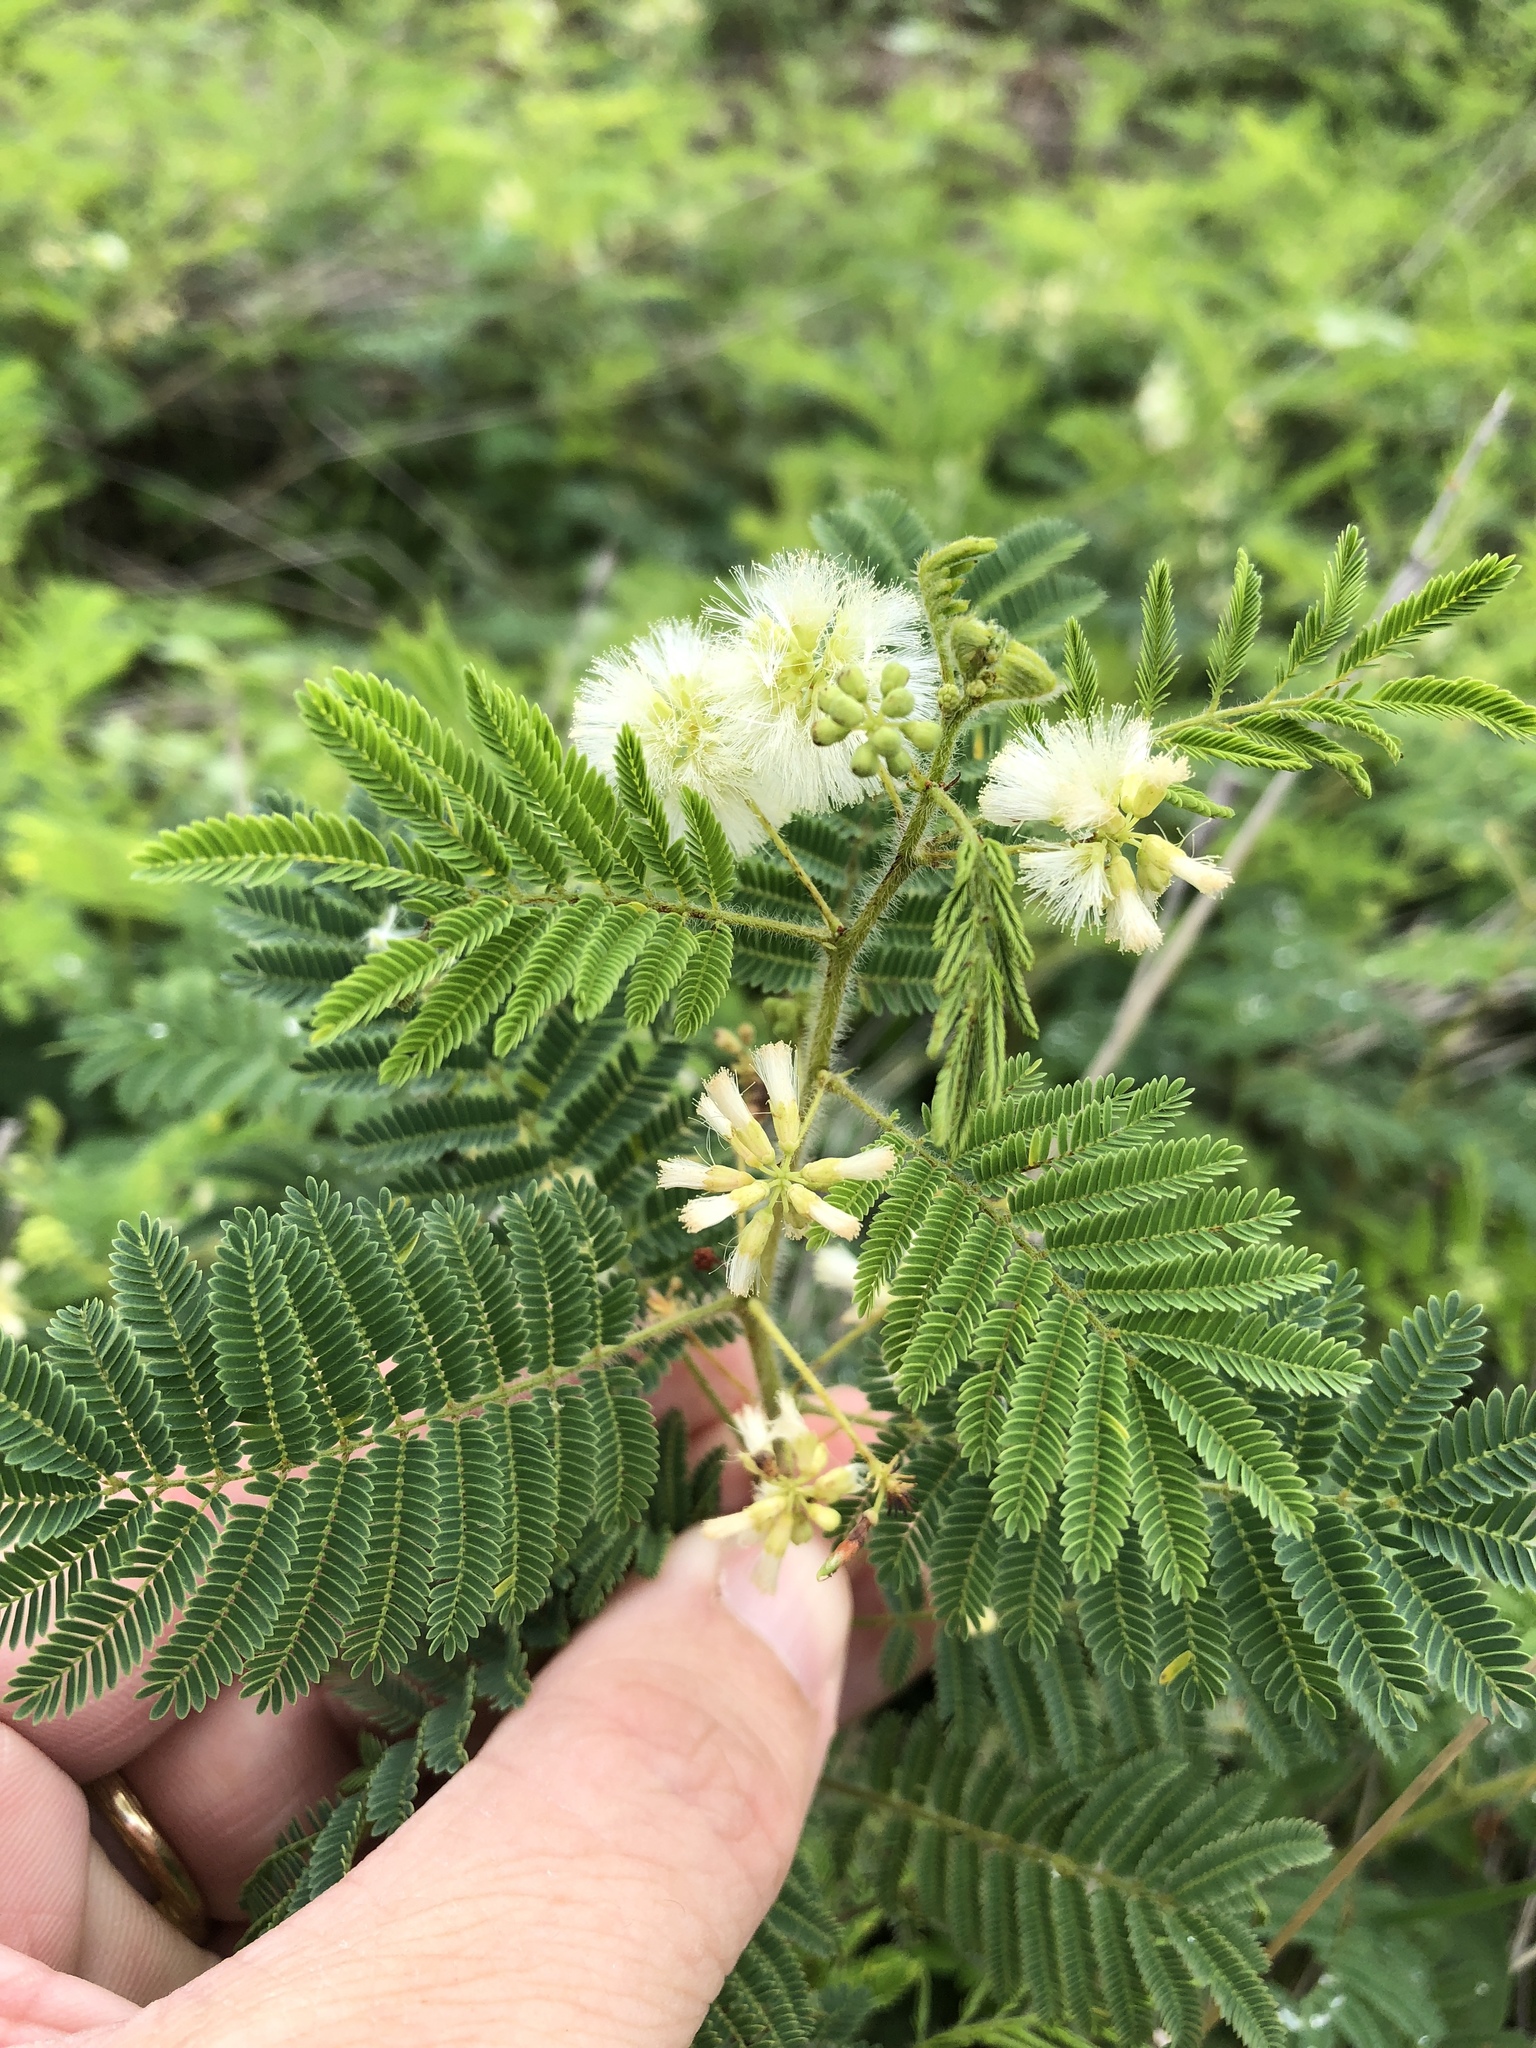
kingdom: Plantae
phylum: Tracheophyta
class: Magnoliopsida
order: Fabales
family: Fabaceae
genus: Acaciella
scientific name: Acaciella angustissima
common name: Prairie acacia
